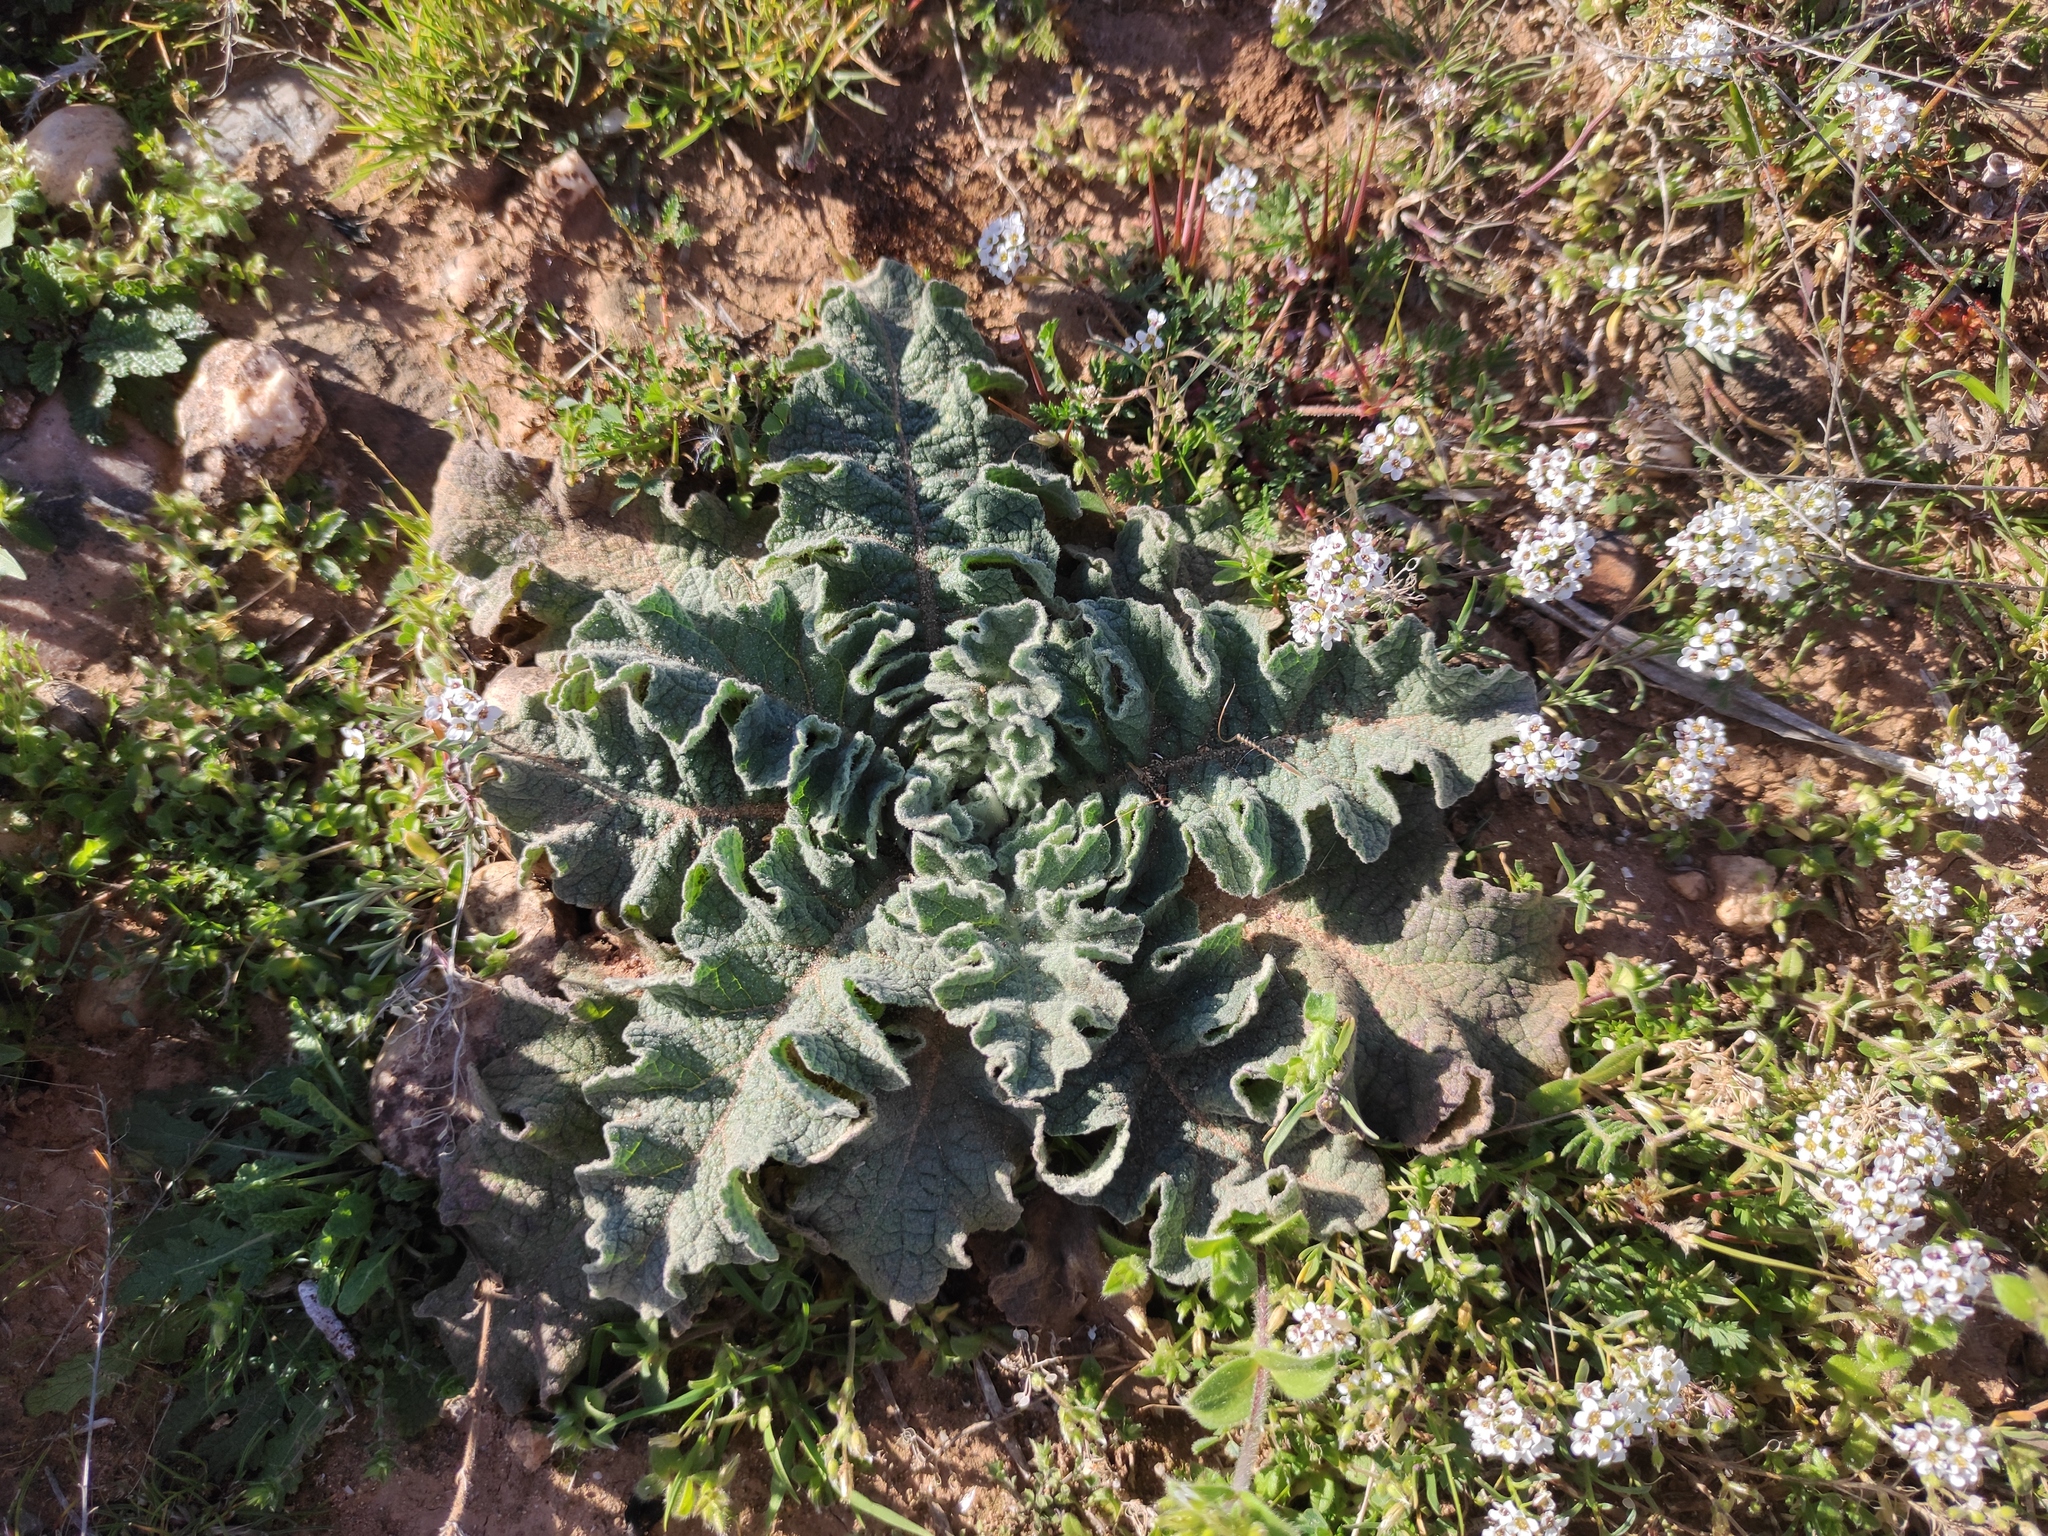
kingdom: Plantae
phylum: Tracheophyta
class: Magnoliopsida
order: Lamiales
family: Scrophulariaceae
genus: Verbascum
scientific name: Verbascum sinuatum
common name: Wavyleaf mullein
